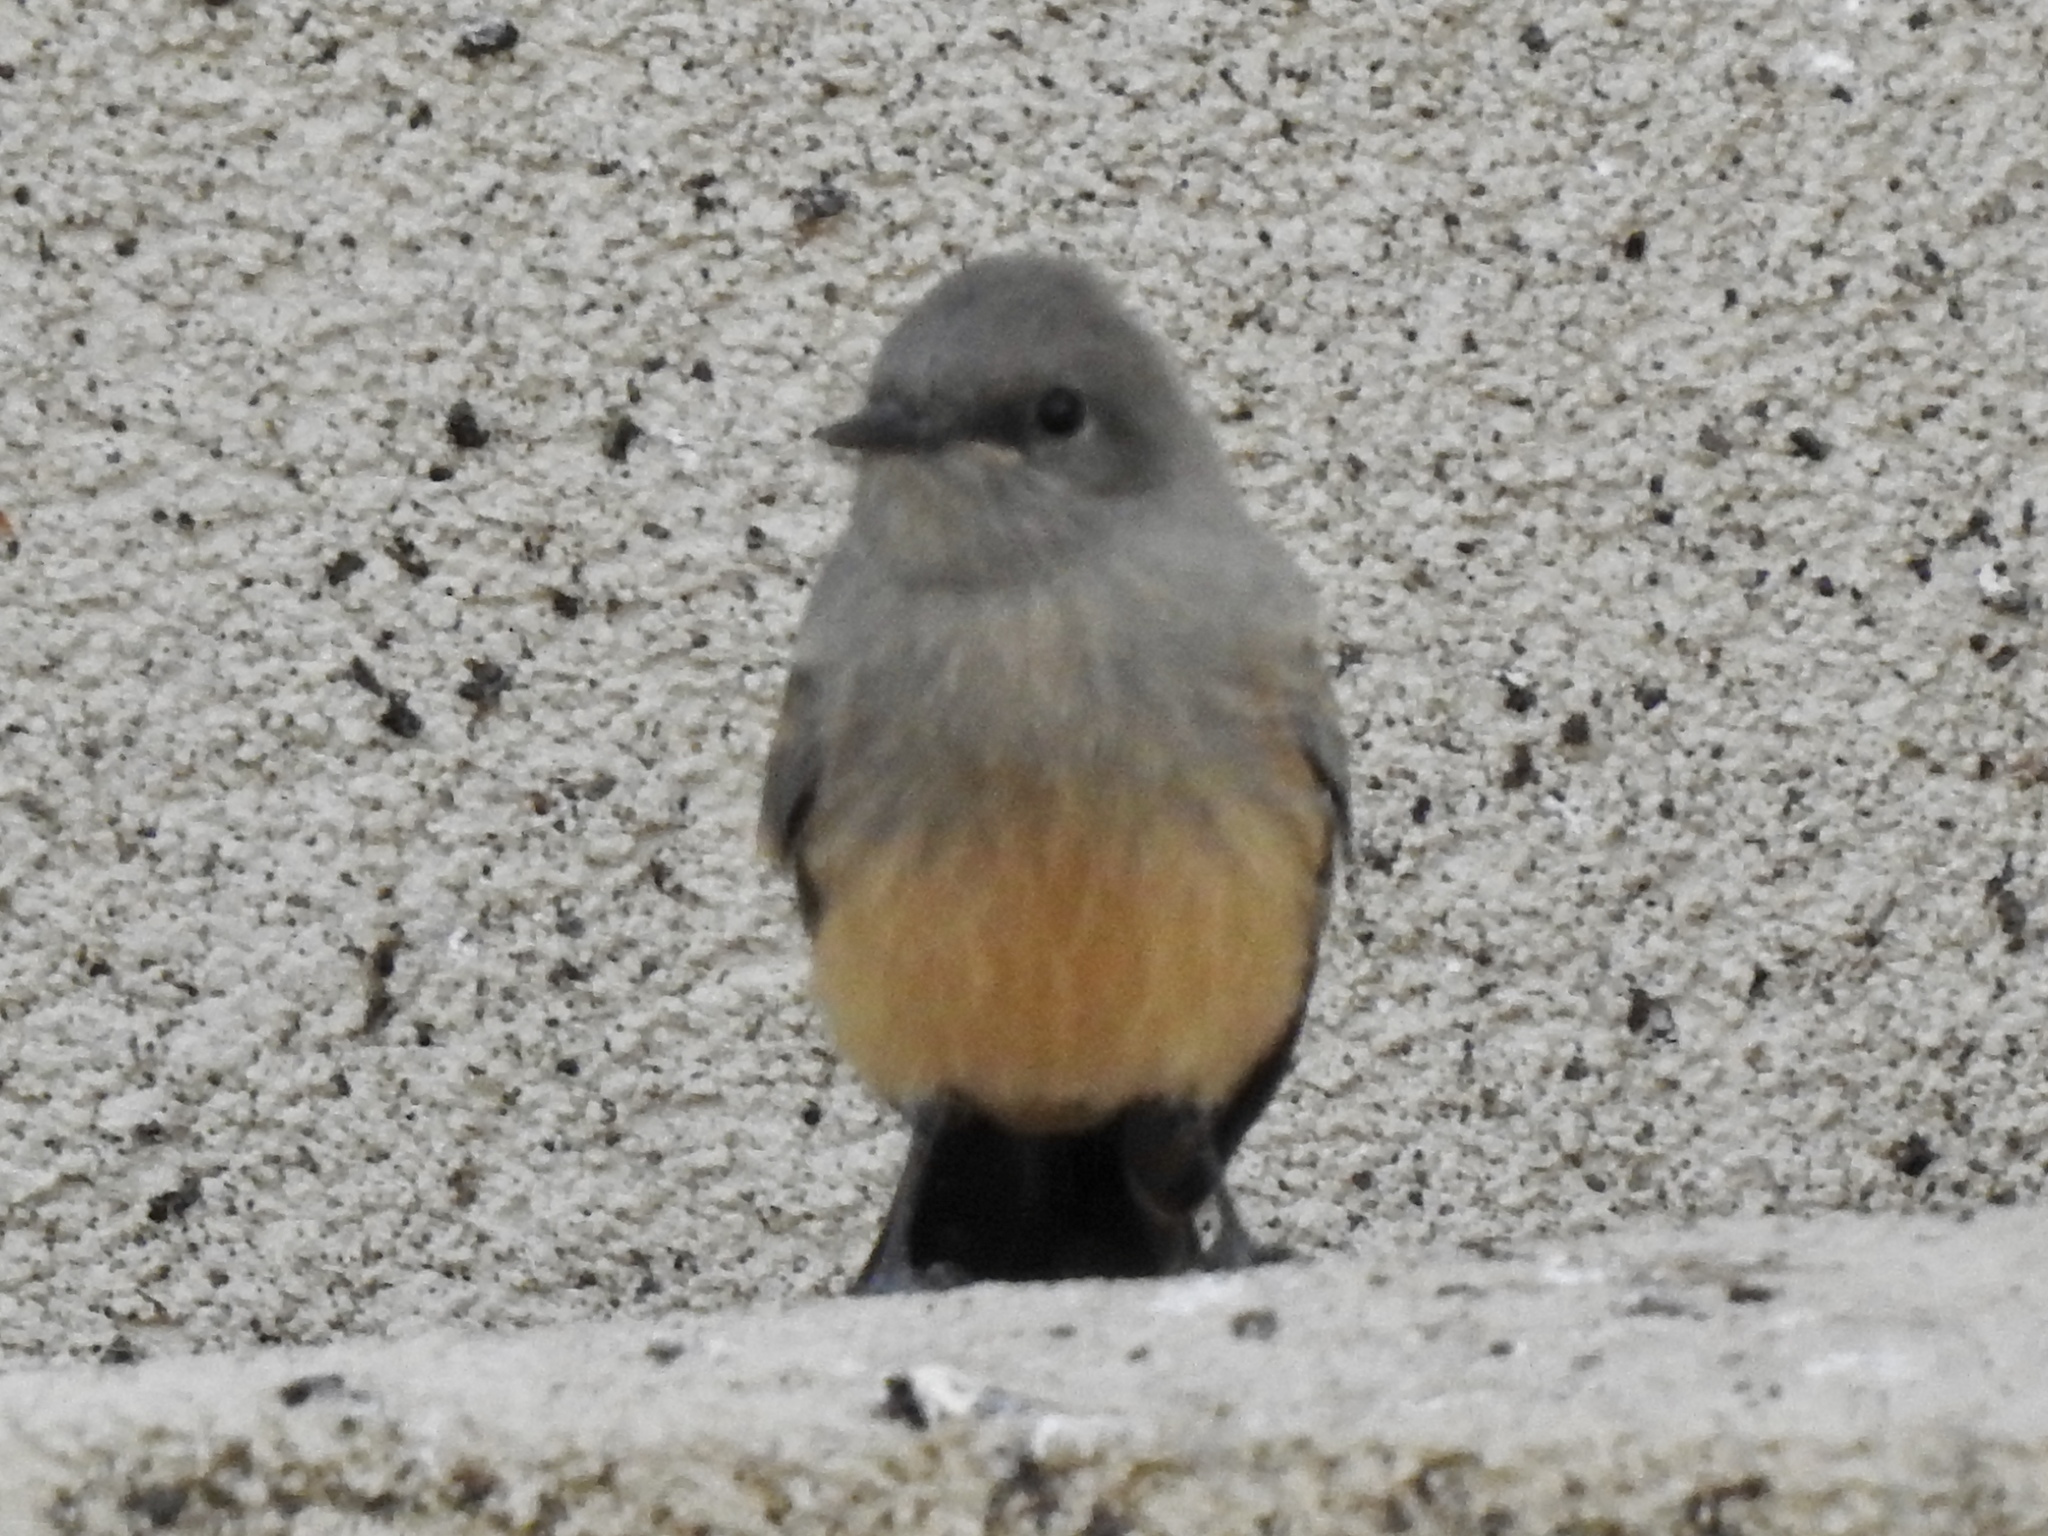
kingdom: Animalia
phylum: Chordata
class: Aves
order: Passeriformes
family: Tyrannidae
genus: Sayornis
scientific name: Sayornis saya
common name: Say's phoebe
